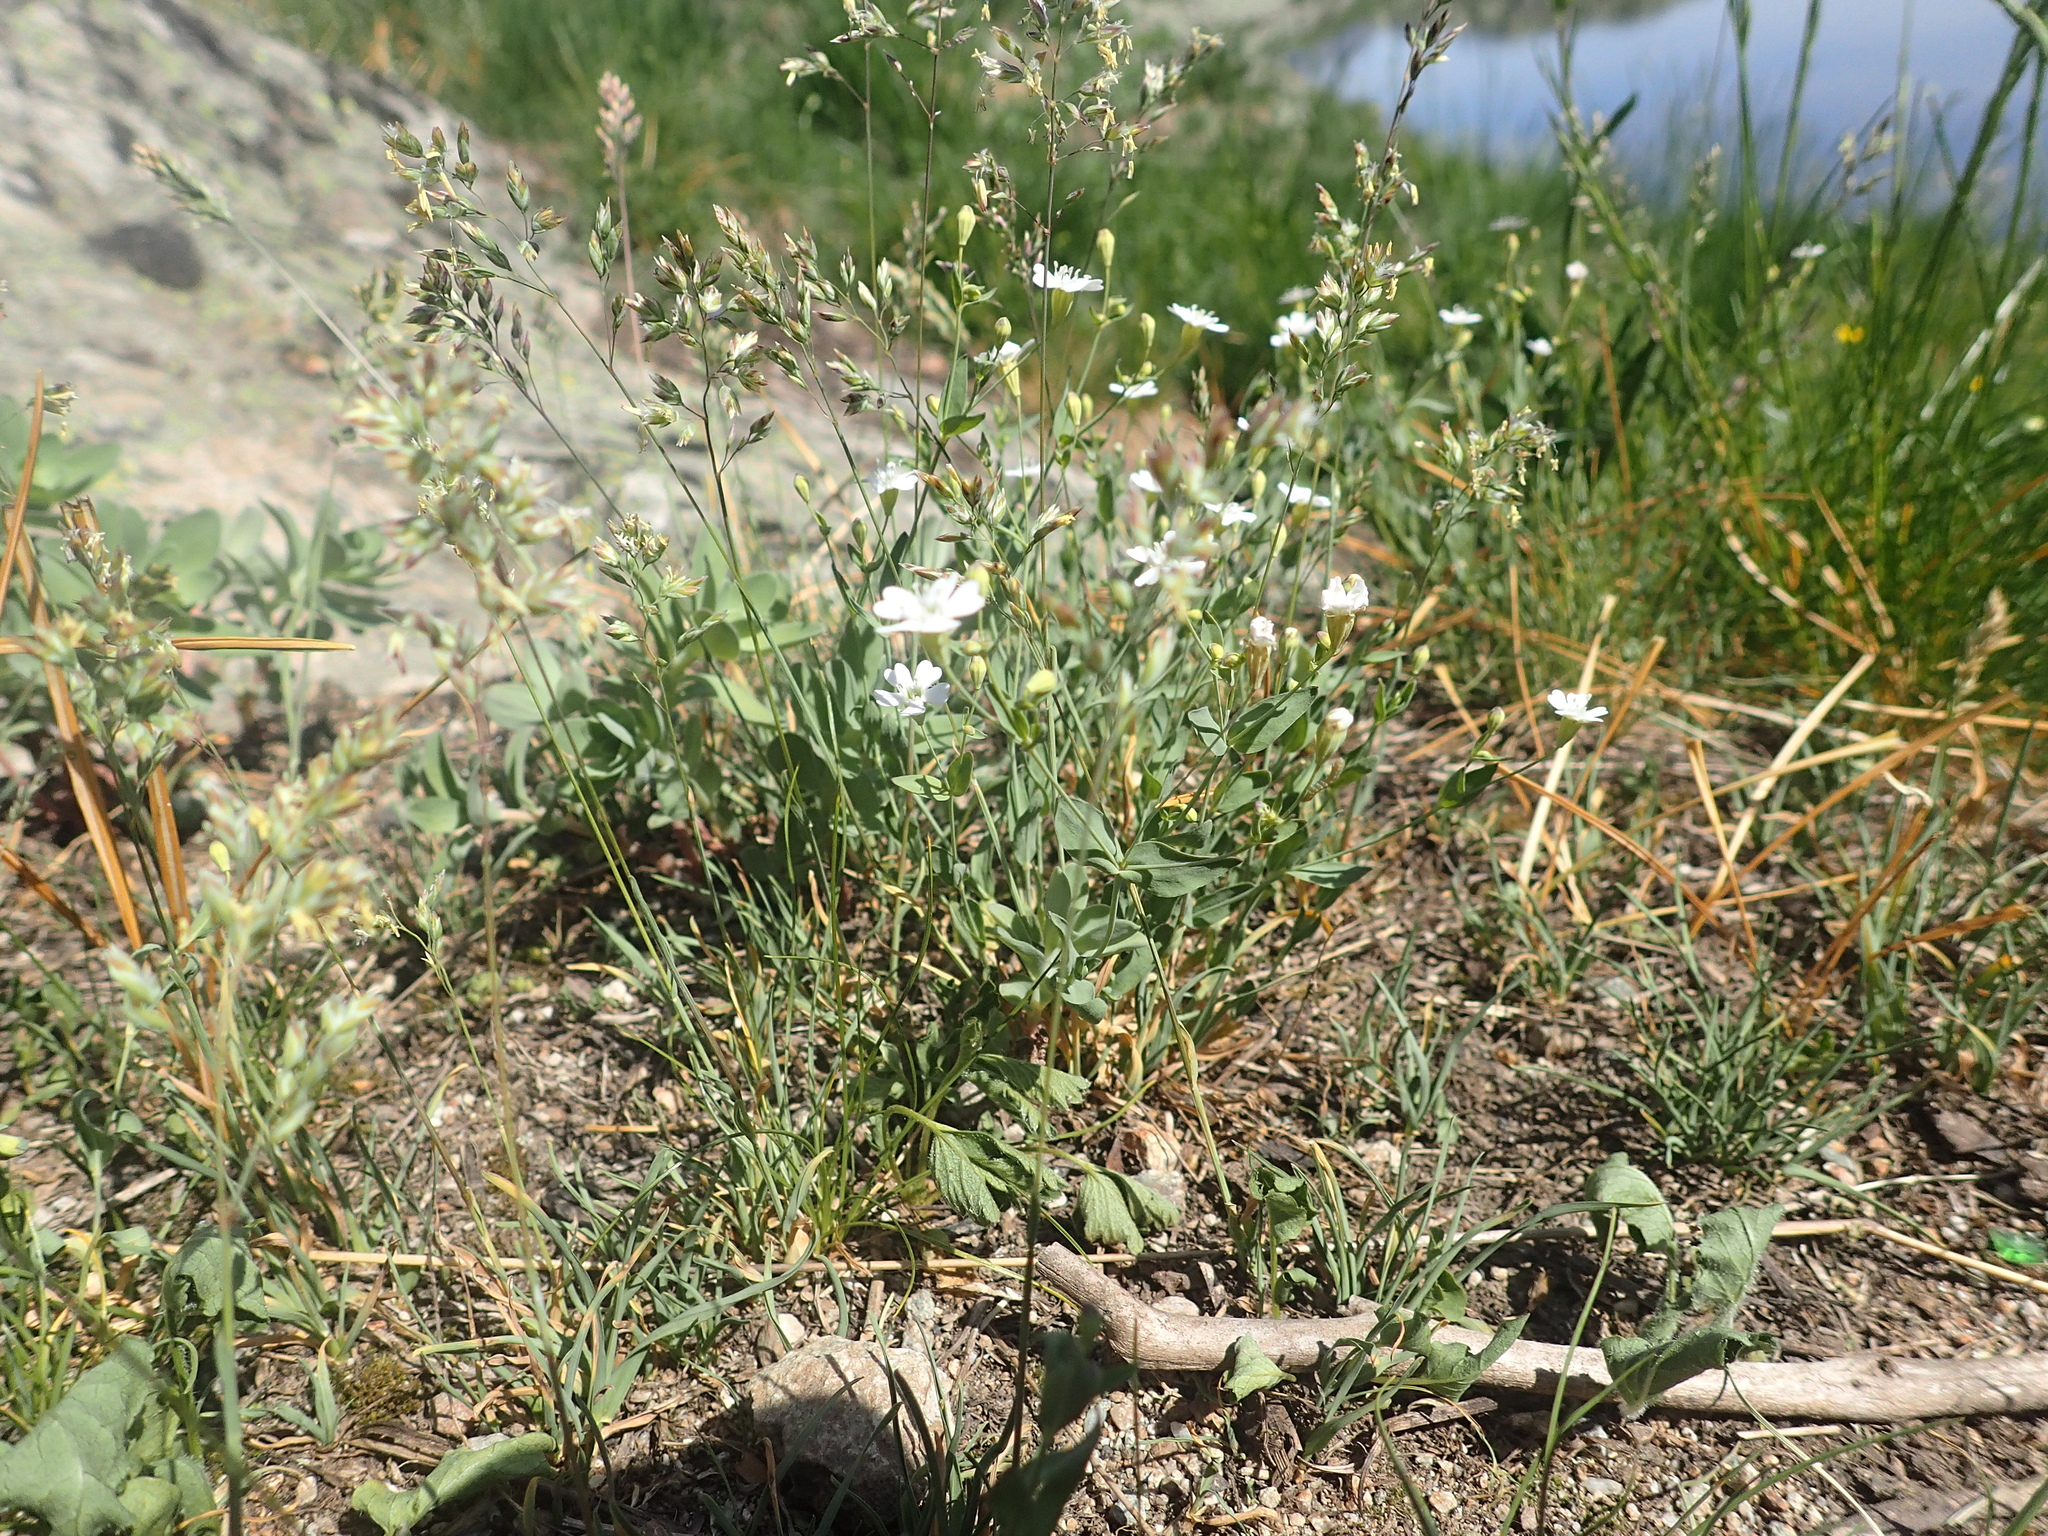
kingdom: Plantae
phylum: Tracheophyta
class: Magnoliopsida
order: Caryophyllales
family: Caryophyllaceae
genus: Atocion
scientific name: Atocion rupestre
